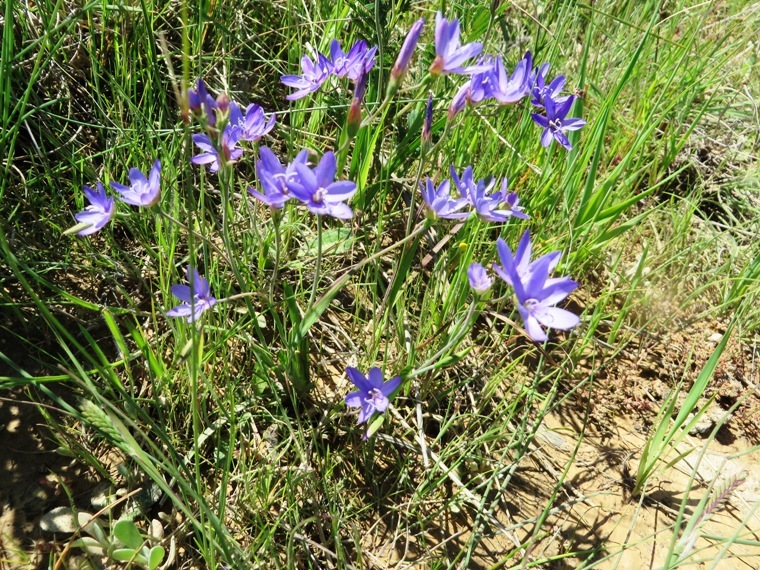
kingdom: Plantae
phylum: Tracheophyta
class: Liliopsida
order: Asparagales
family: Iridaceae
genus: Geissorhiza
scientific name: Geissorhiza aspera
